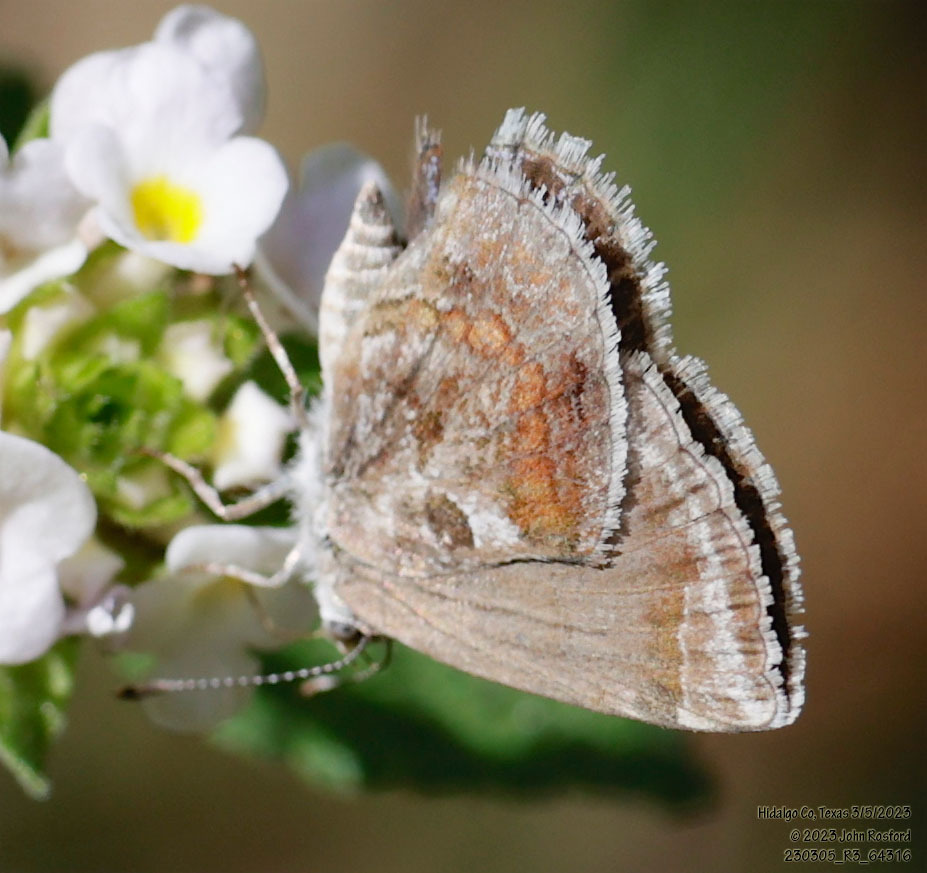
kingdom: Animalia
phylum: Arthropoda
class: Insecta
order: Lepidoptera
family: Lycaenidae
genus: Strymon
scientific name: Strymon bazochii
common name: Lantana scrub-hairstreak
